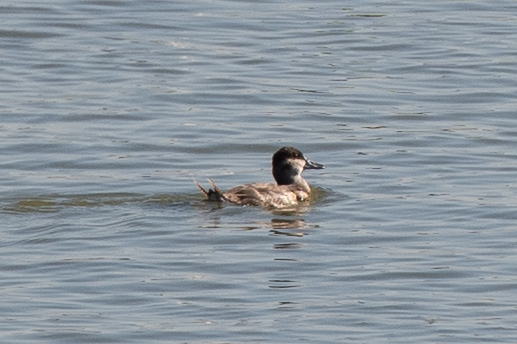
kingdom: Animalia
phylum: Chordata
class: Aves
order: Anseriformes
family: Anatidae
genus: Oxyura
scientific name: Oxyura jamaicensis
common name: Ruddy duck
